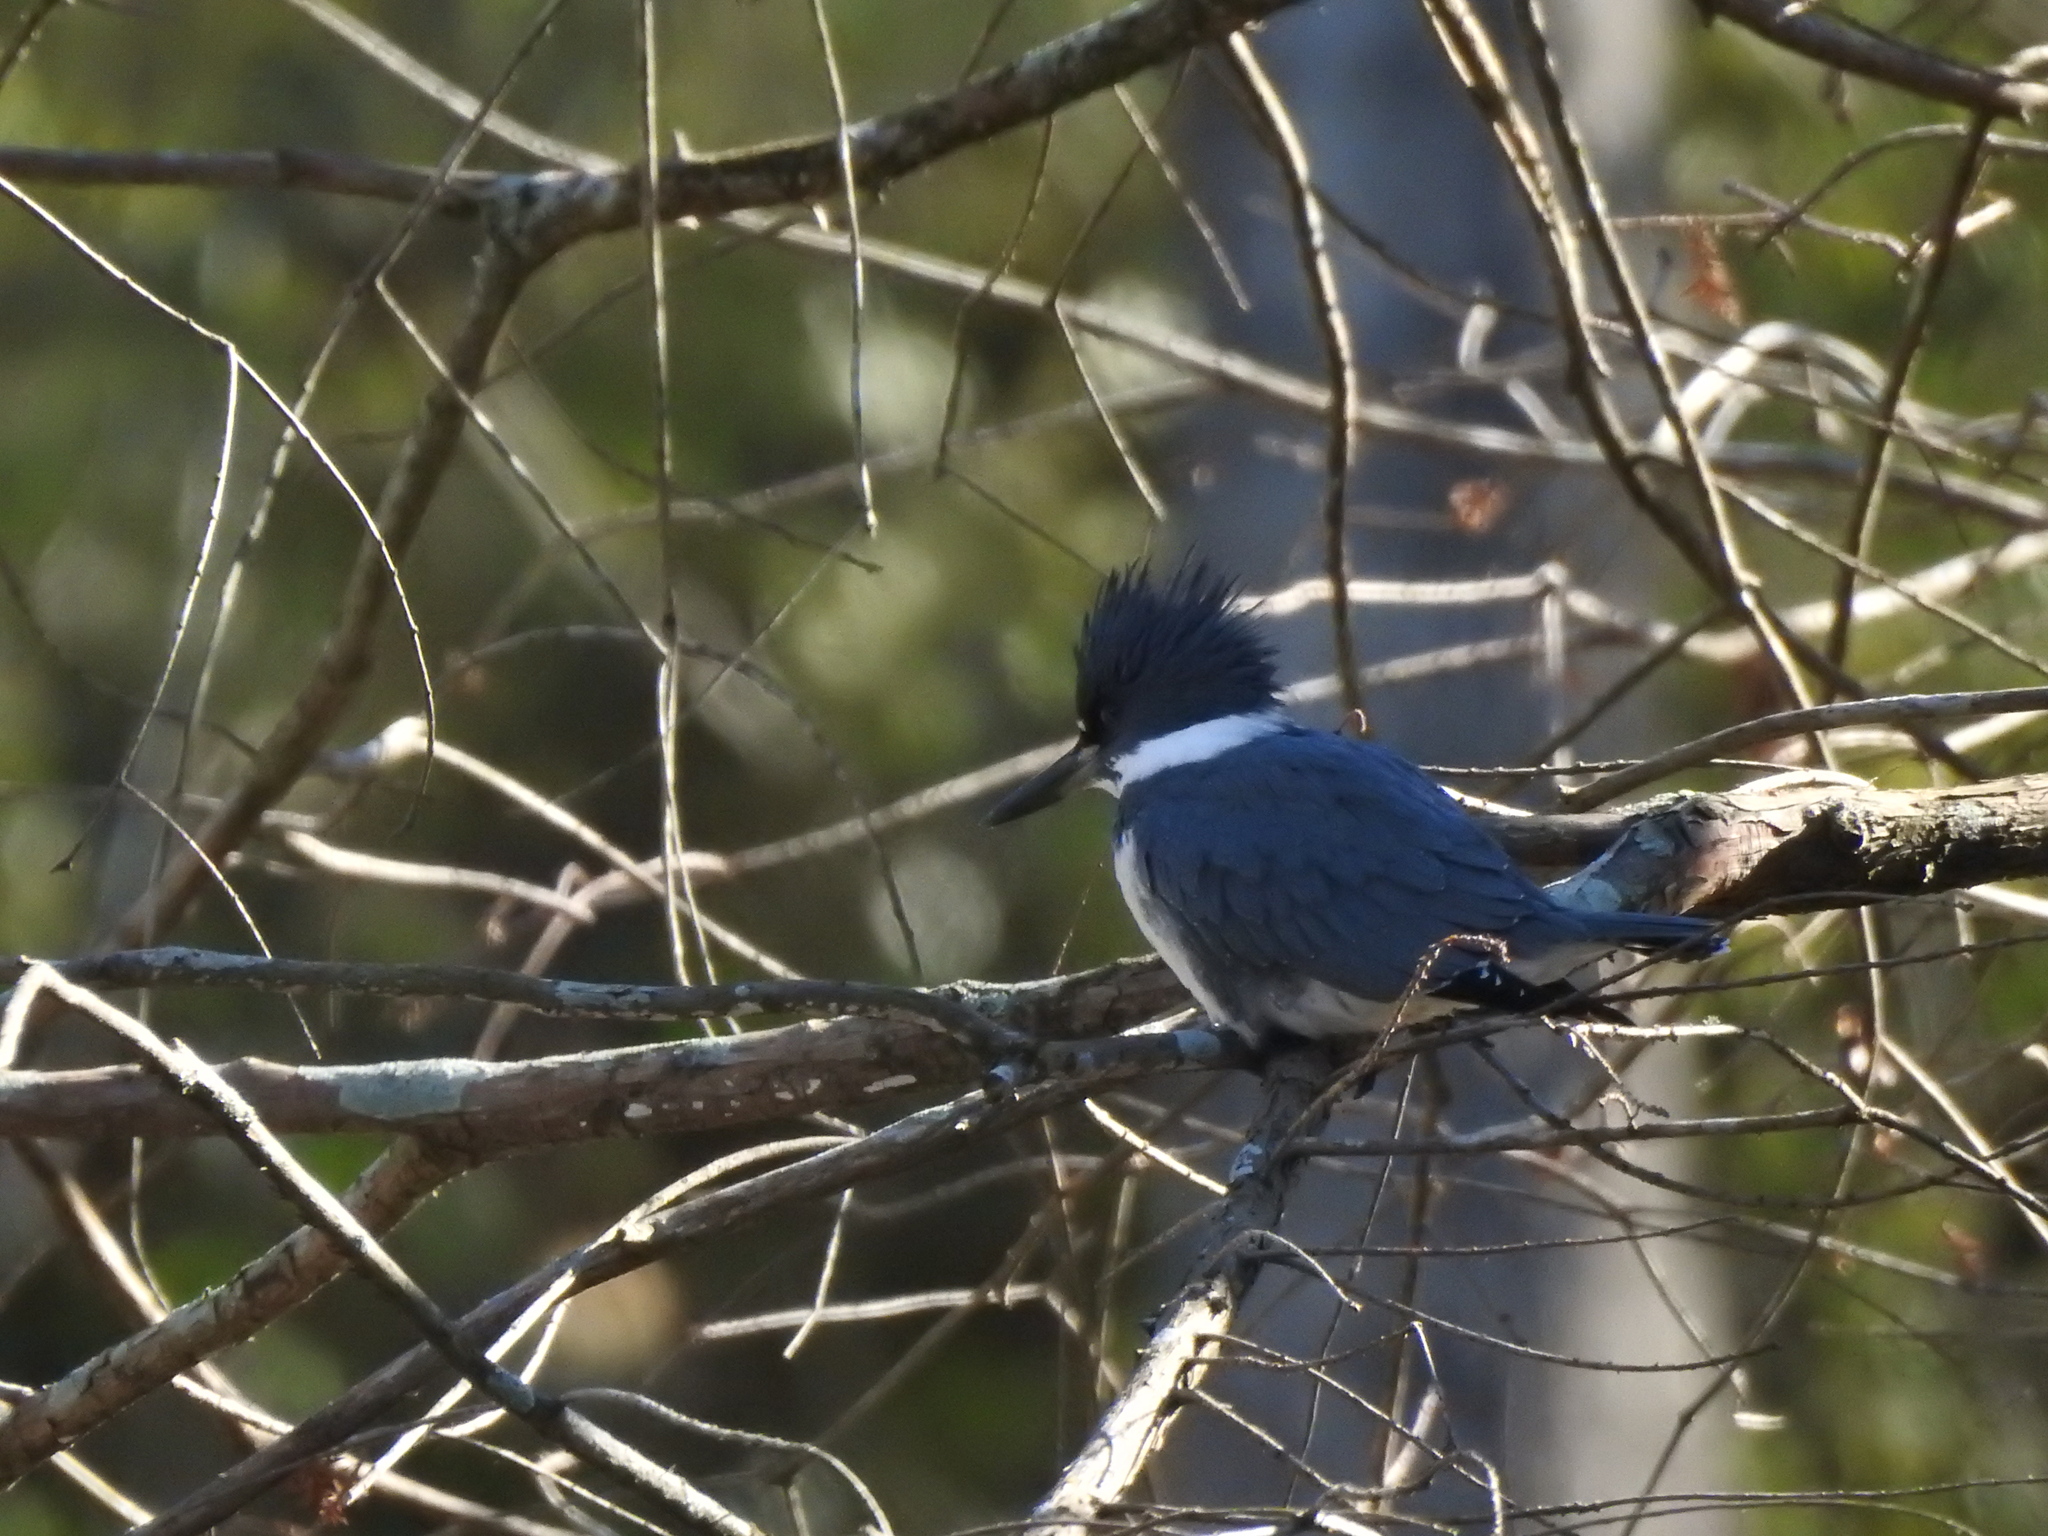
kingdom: Animalia
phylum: Chordata
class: Aves
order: Coraciiformes
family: Alcedinidae
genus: Megaceryle
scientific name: Megaceryle alcyon
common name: Belted kingfisher
